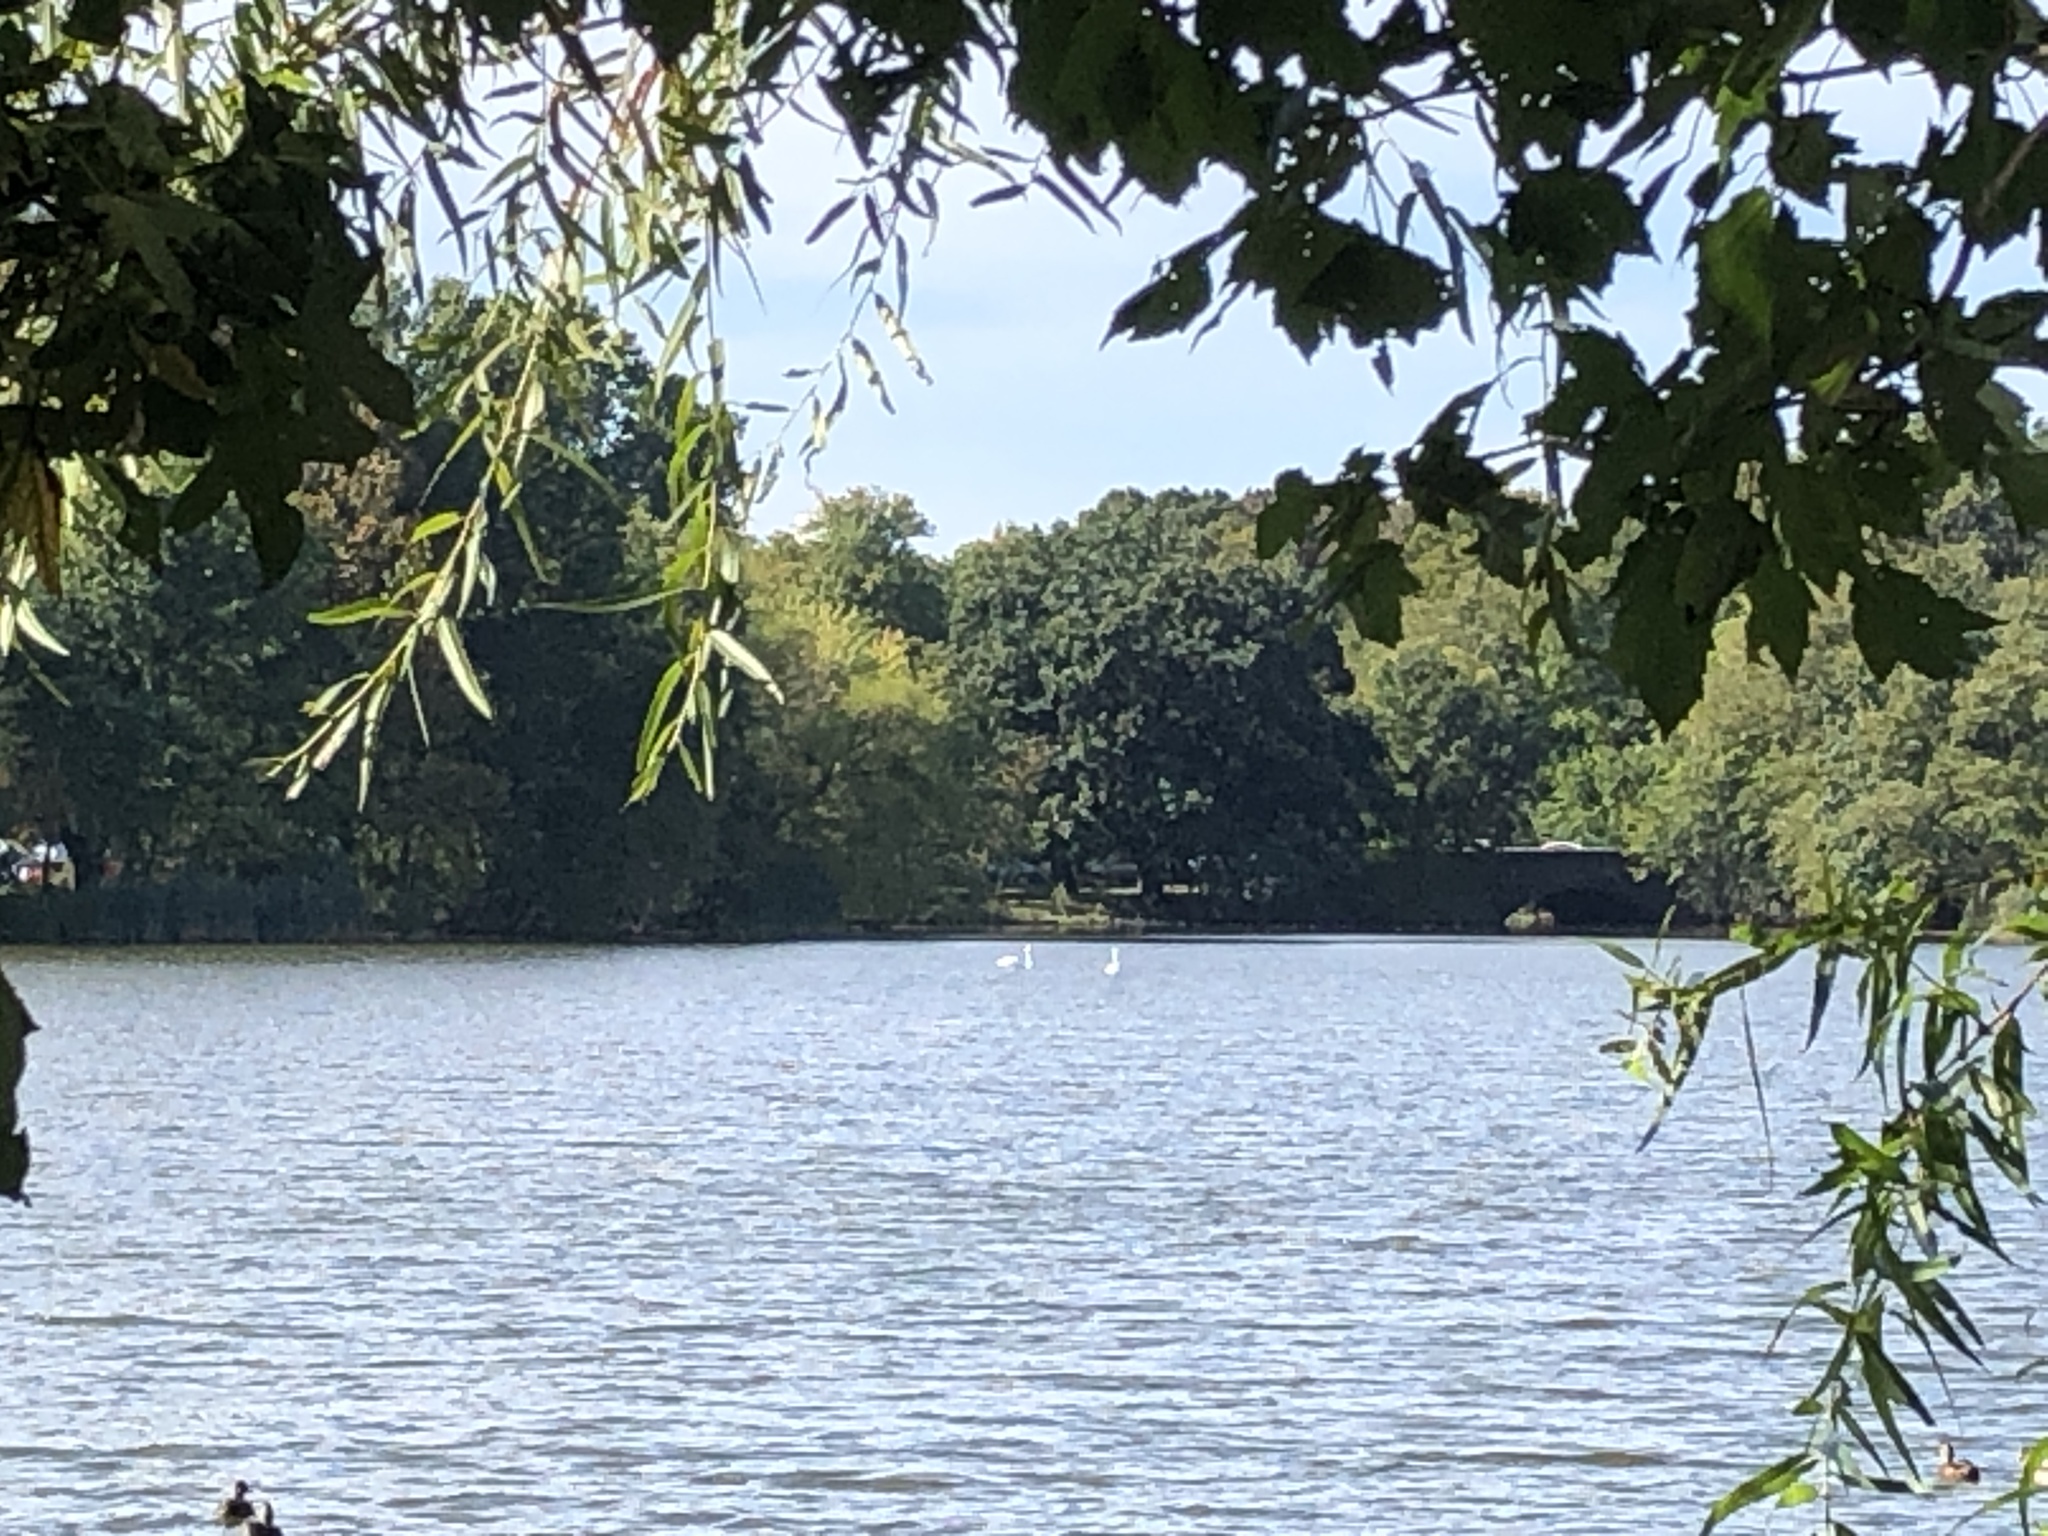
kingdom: Animalia
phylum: Chordata
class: Aves
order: Anseriformes
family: Anatidae
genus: Cygnus
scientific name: Cygnus olor
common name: Mute swan
